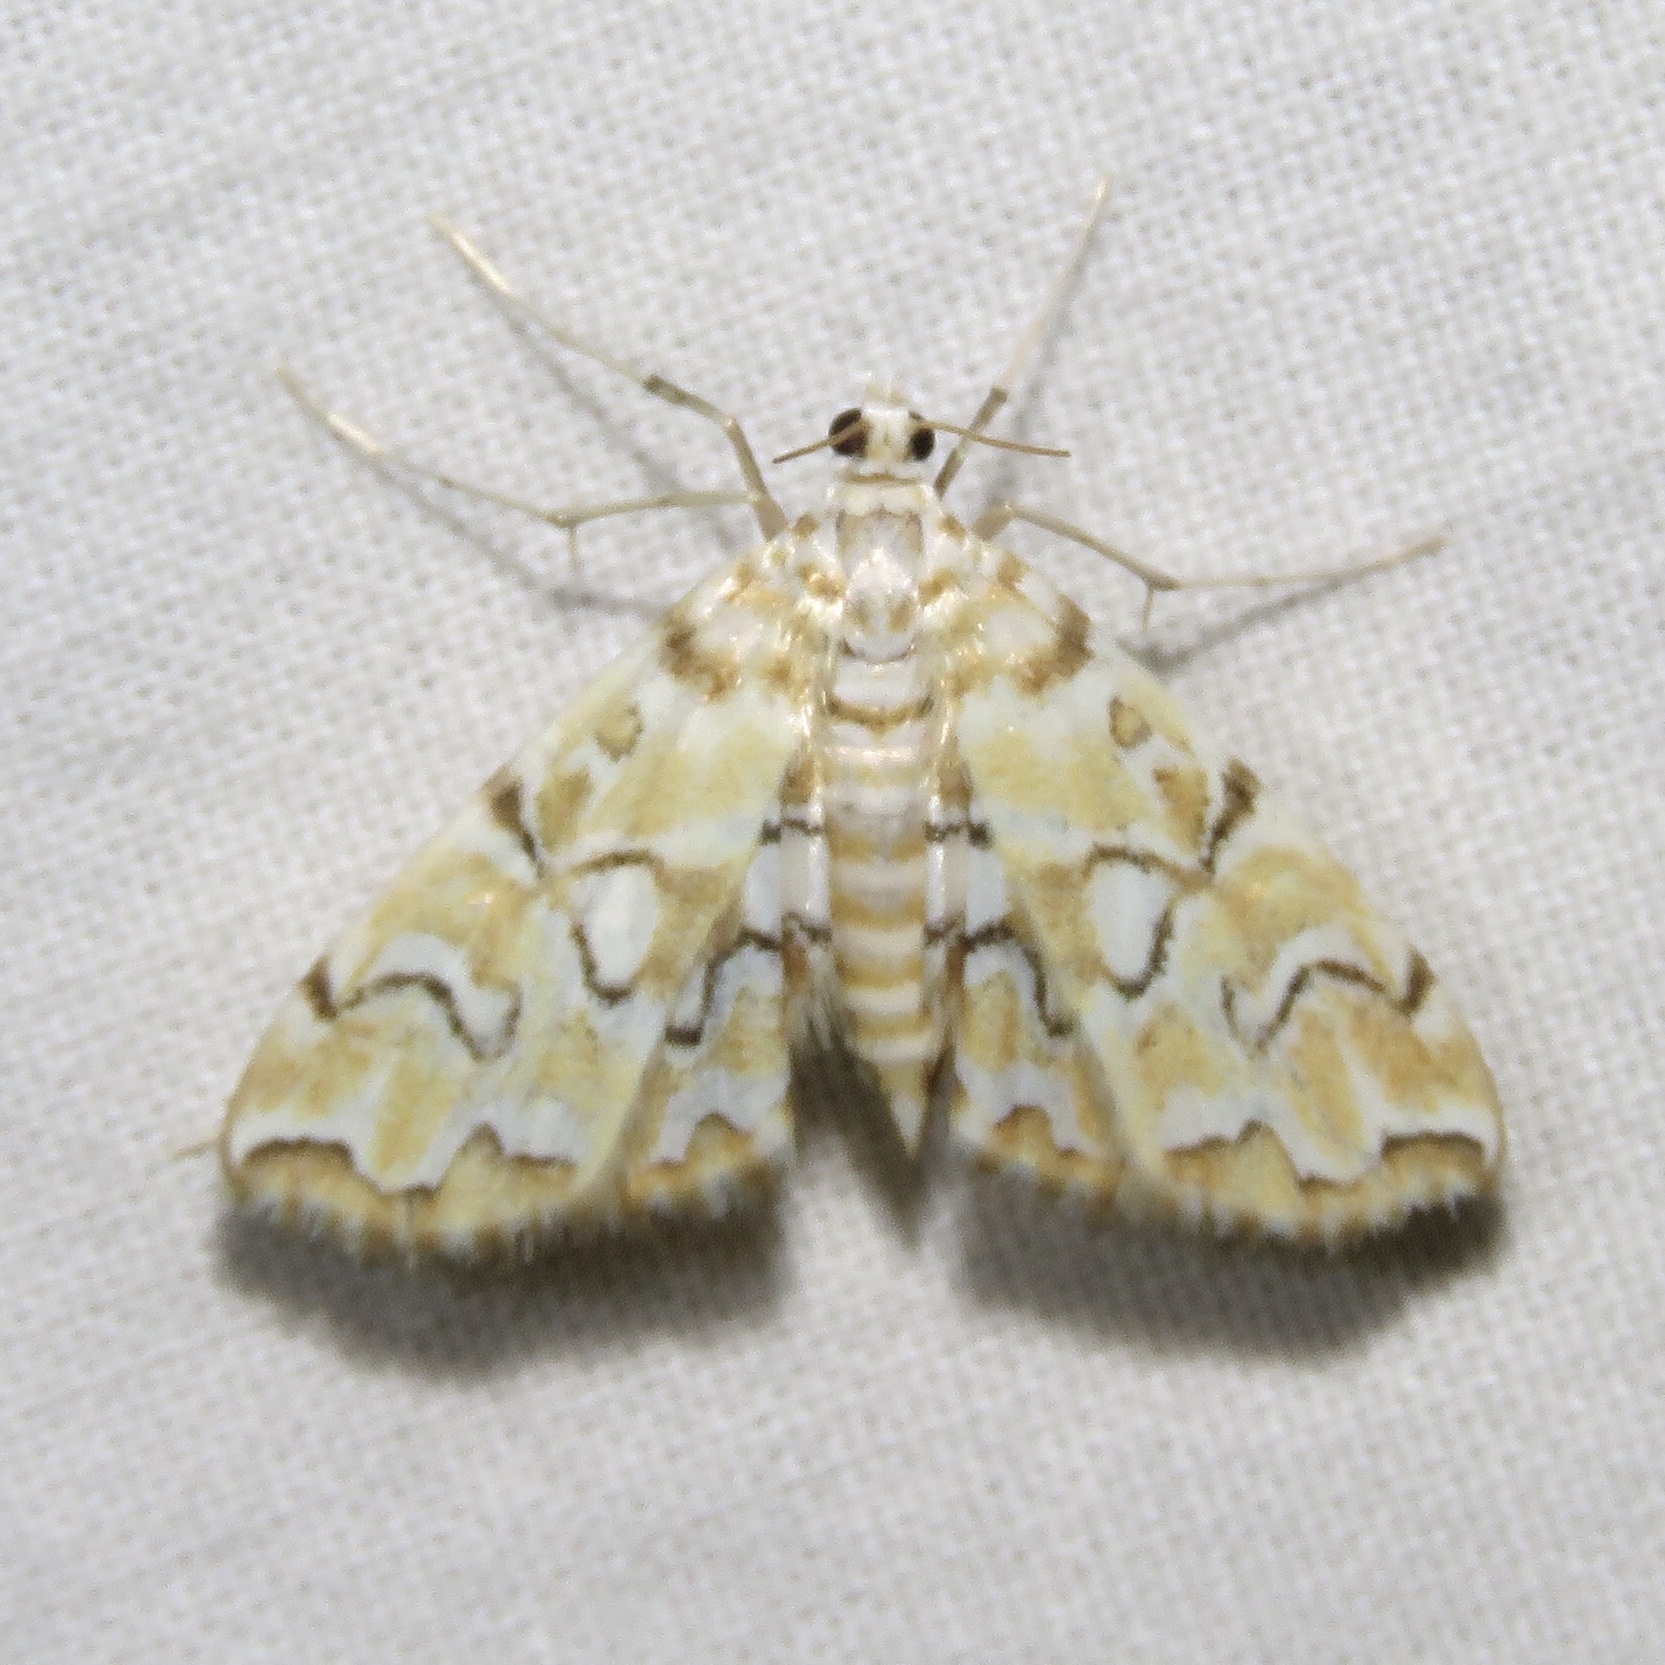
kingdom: Animalia
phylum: Arthropoda
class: Insecta
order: Lepidoptera
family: Crambidae
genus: Elophila
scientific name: Elophila icciusalis
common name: Pondside pyralid moth
